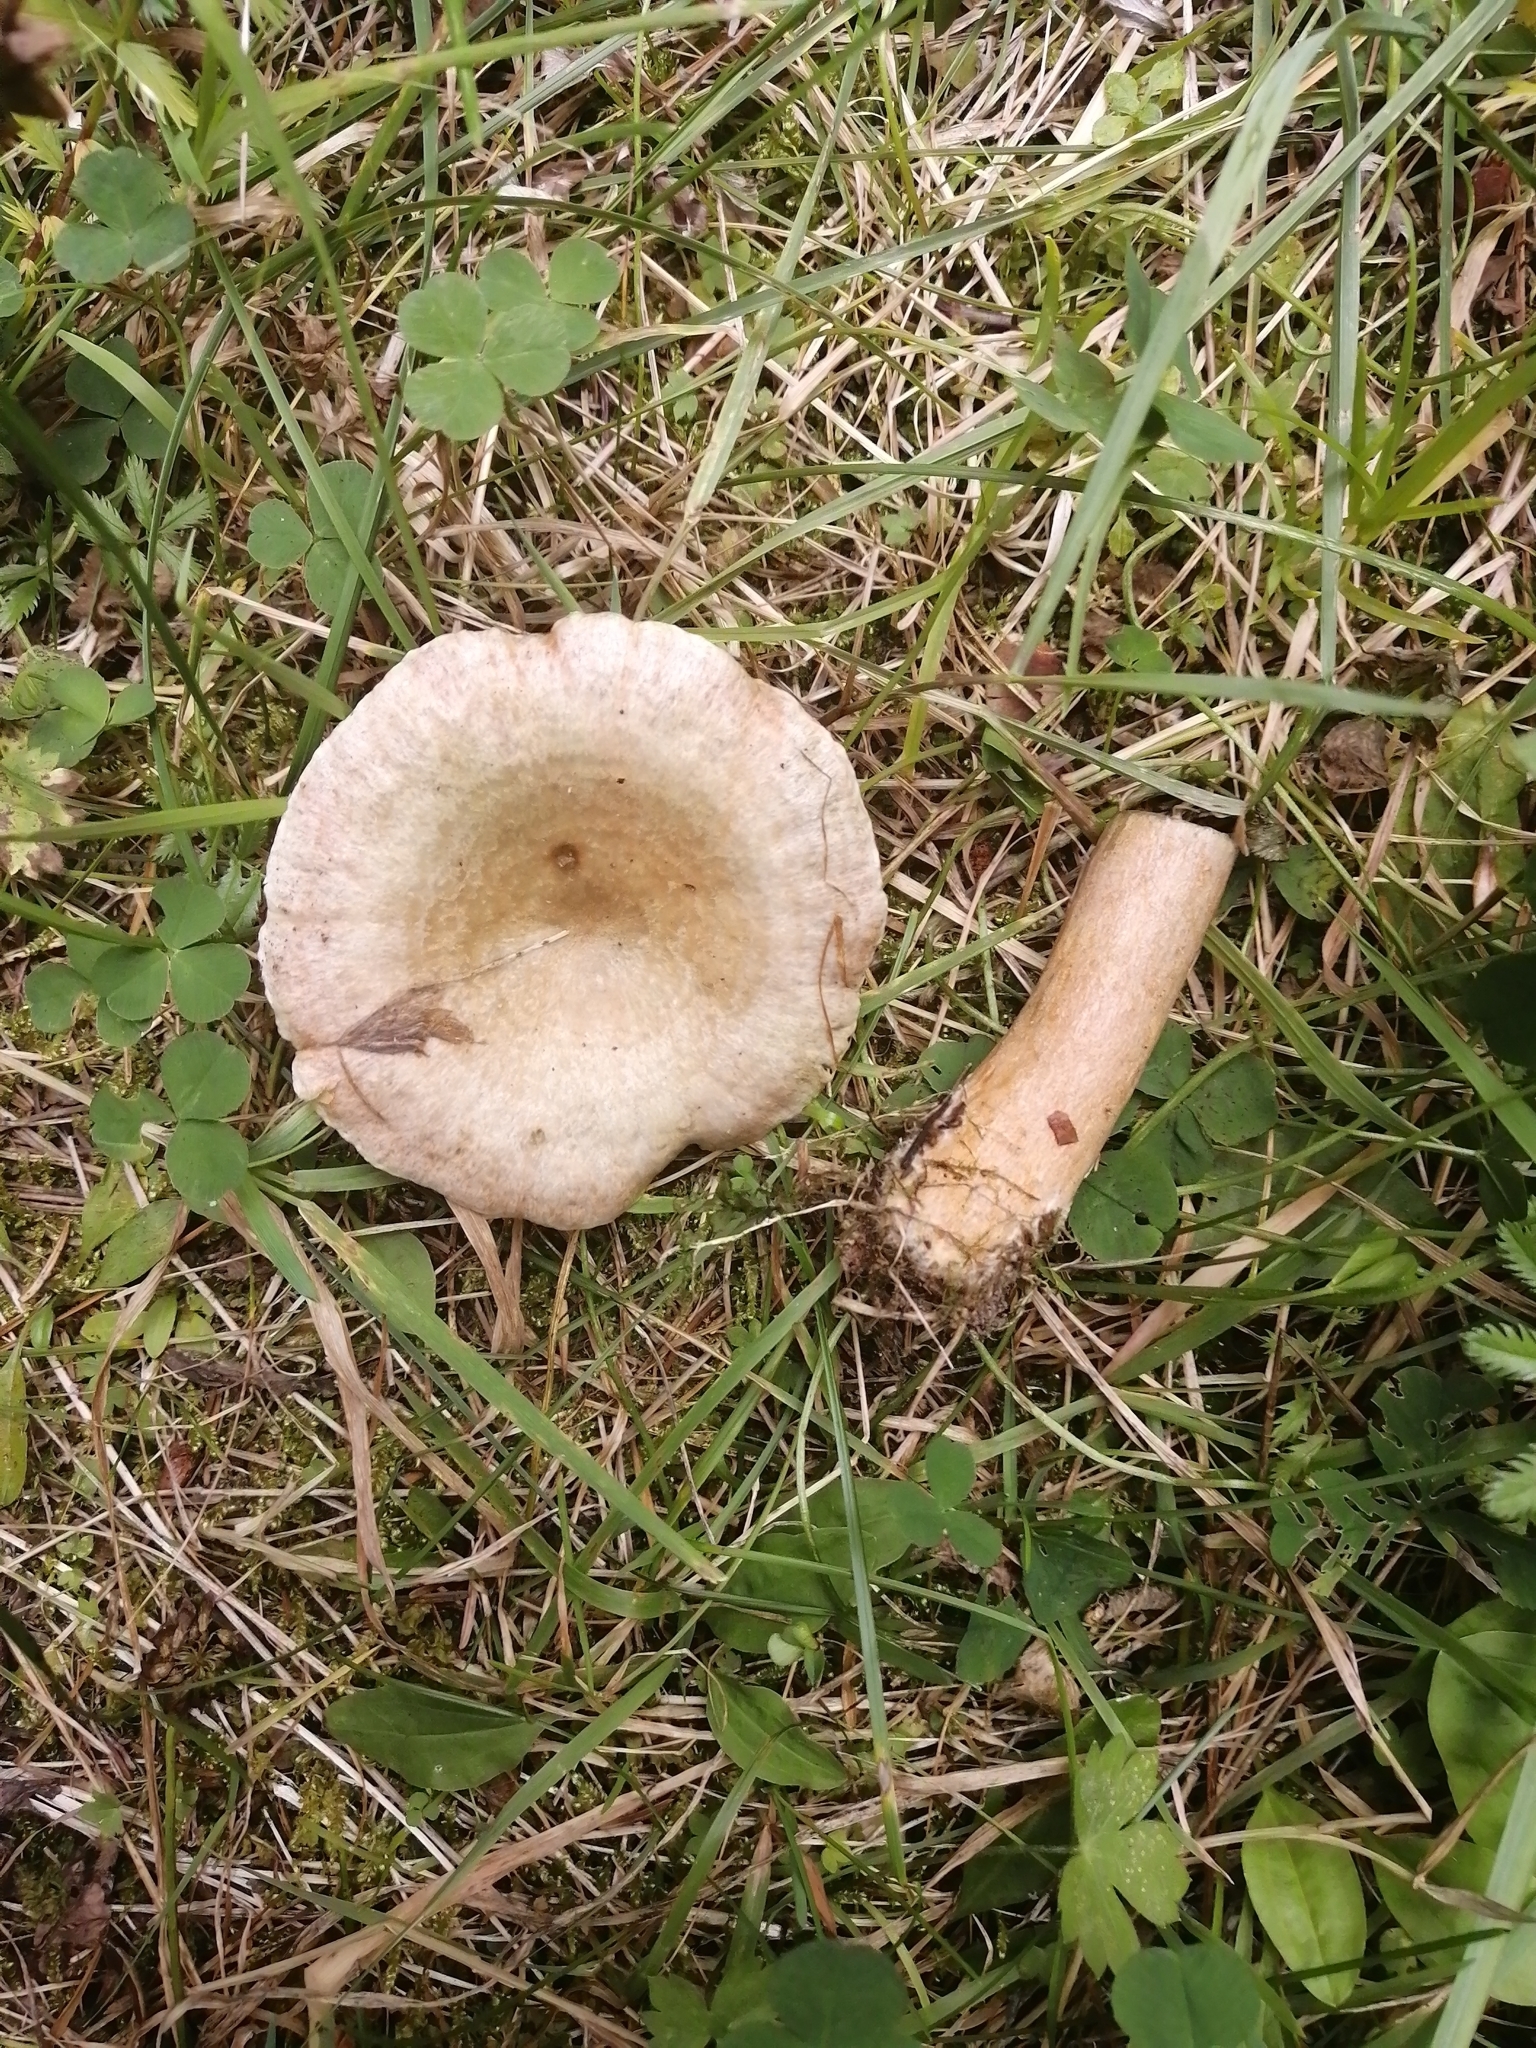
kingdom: Fungi
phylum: Basidiomycota
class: Agaricomycetes
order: Russulales
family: Russulaceae
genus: Lactarius
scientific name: Lactarius flexuosus
